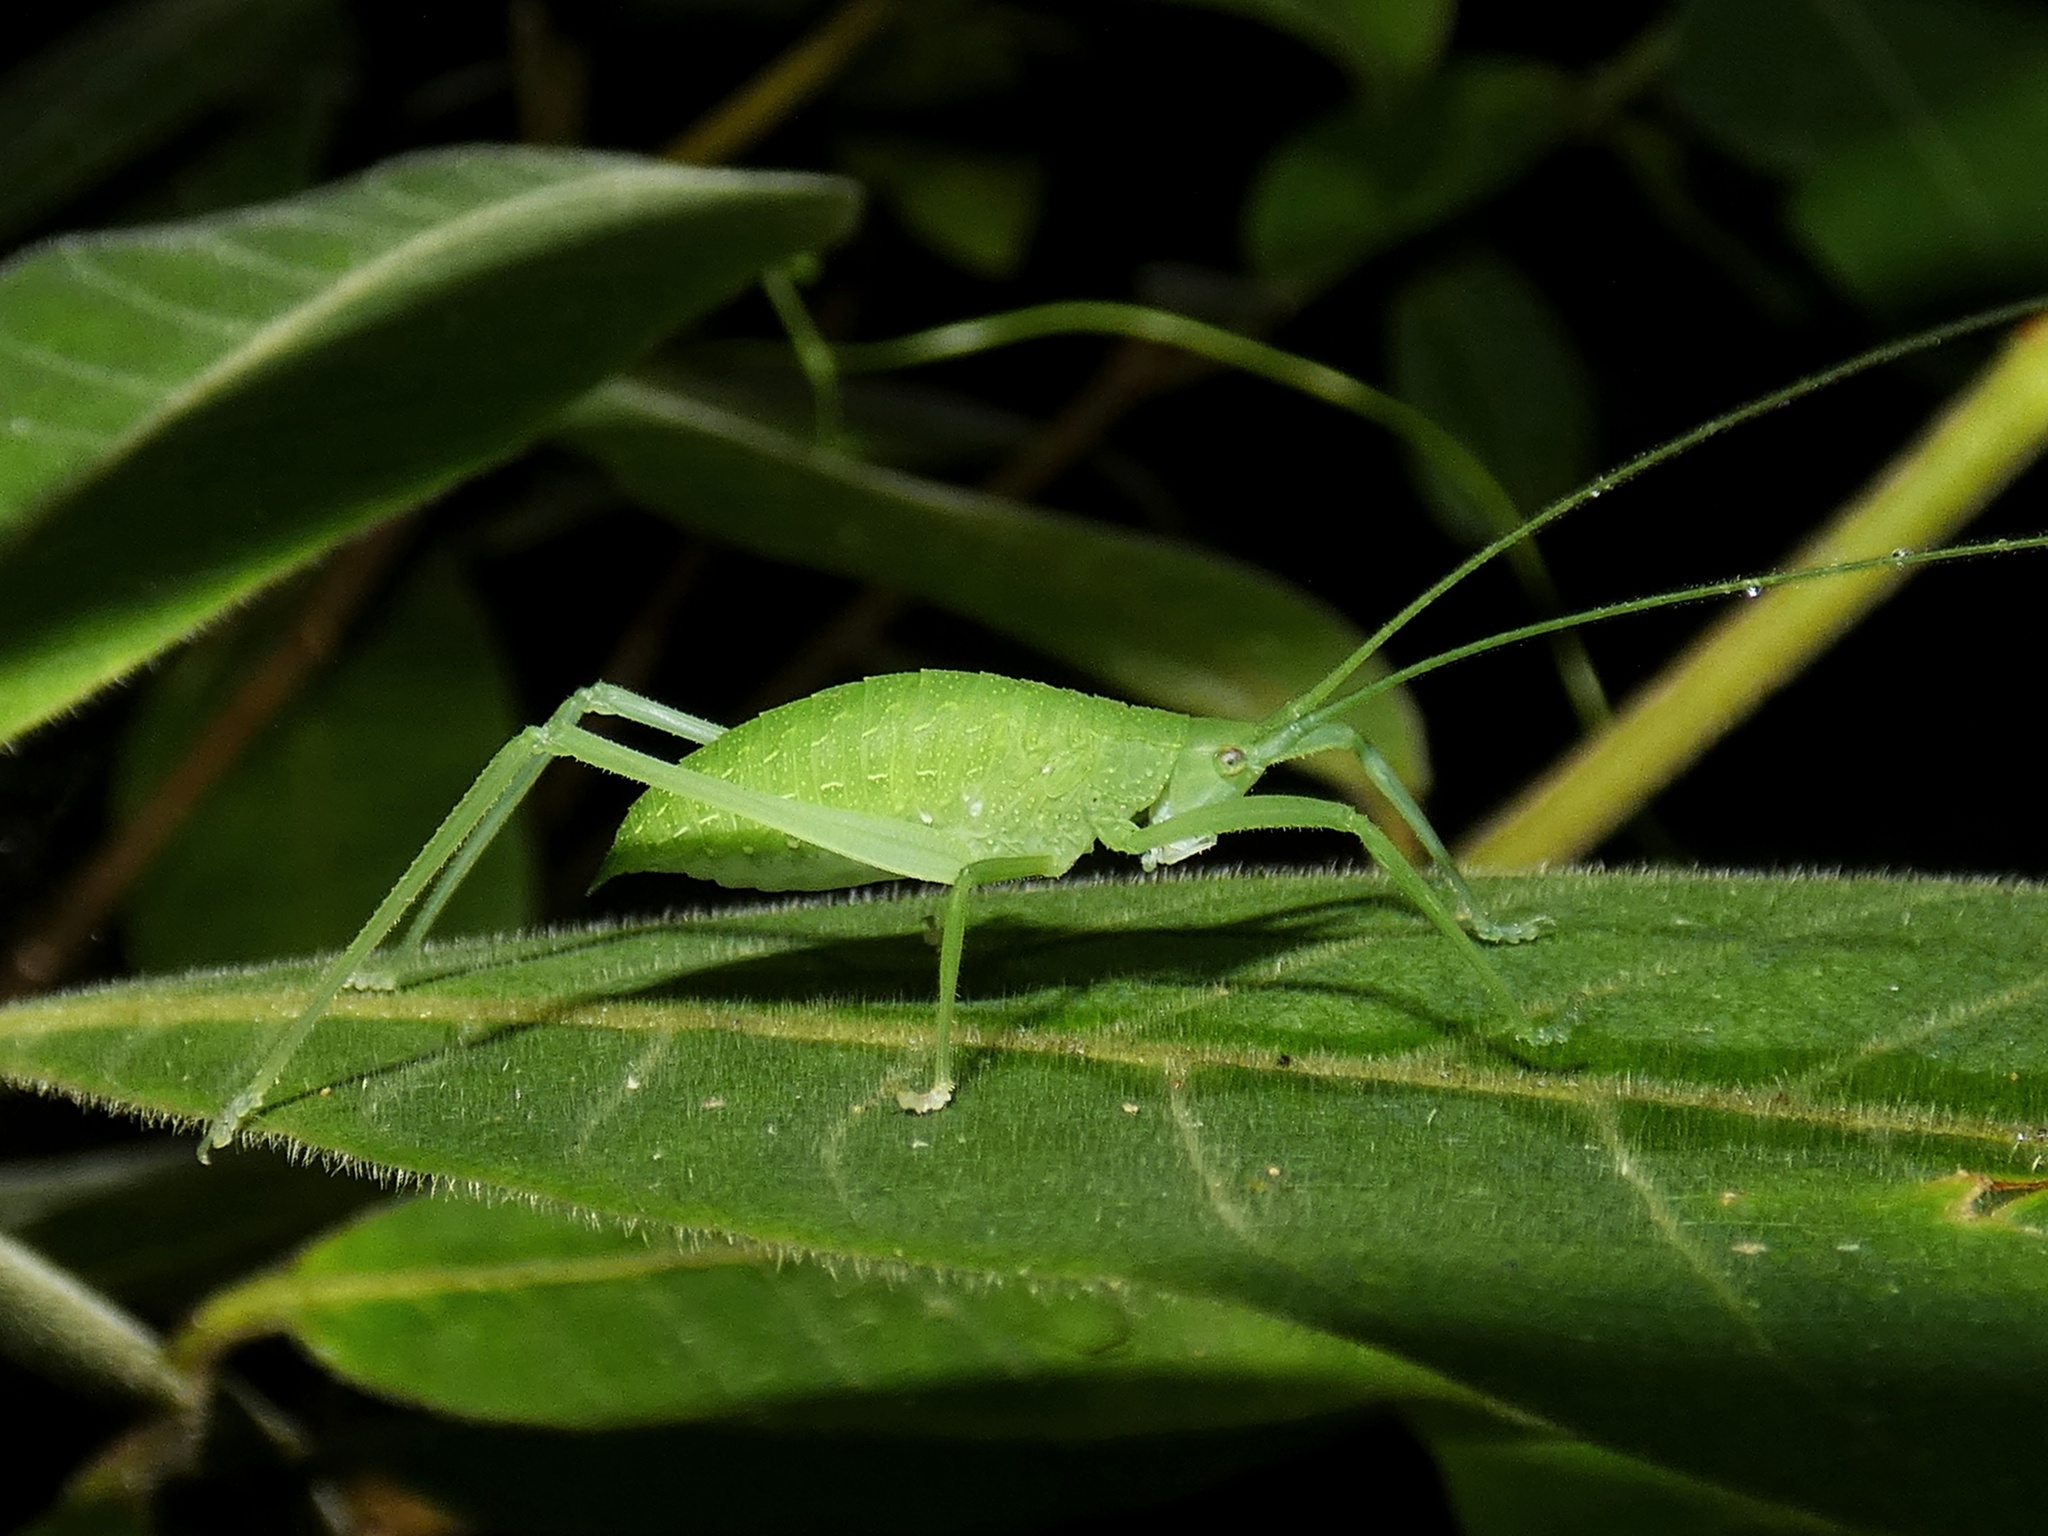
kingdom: Animalia
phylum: Arthropoda
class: Insecta
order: Orthoptera
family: Tettigoniidae
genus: Mastighaphoides
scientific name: Mastighaphoides tuberculatus
